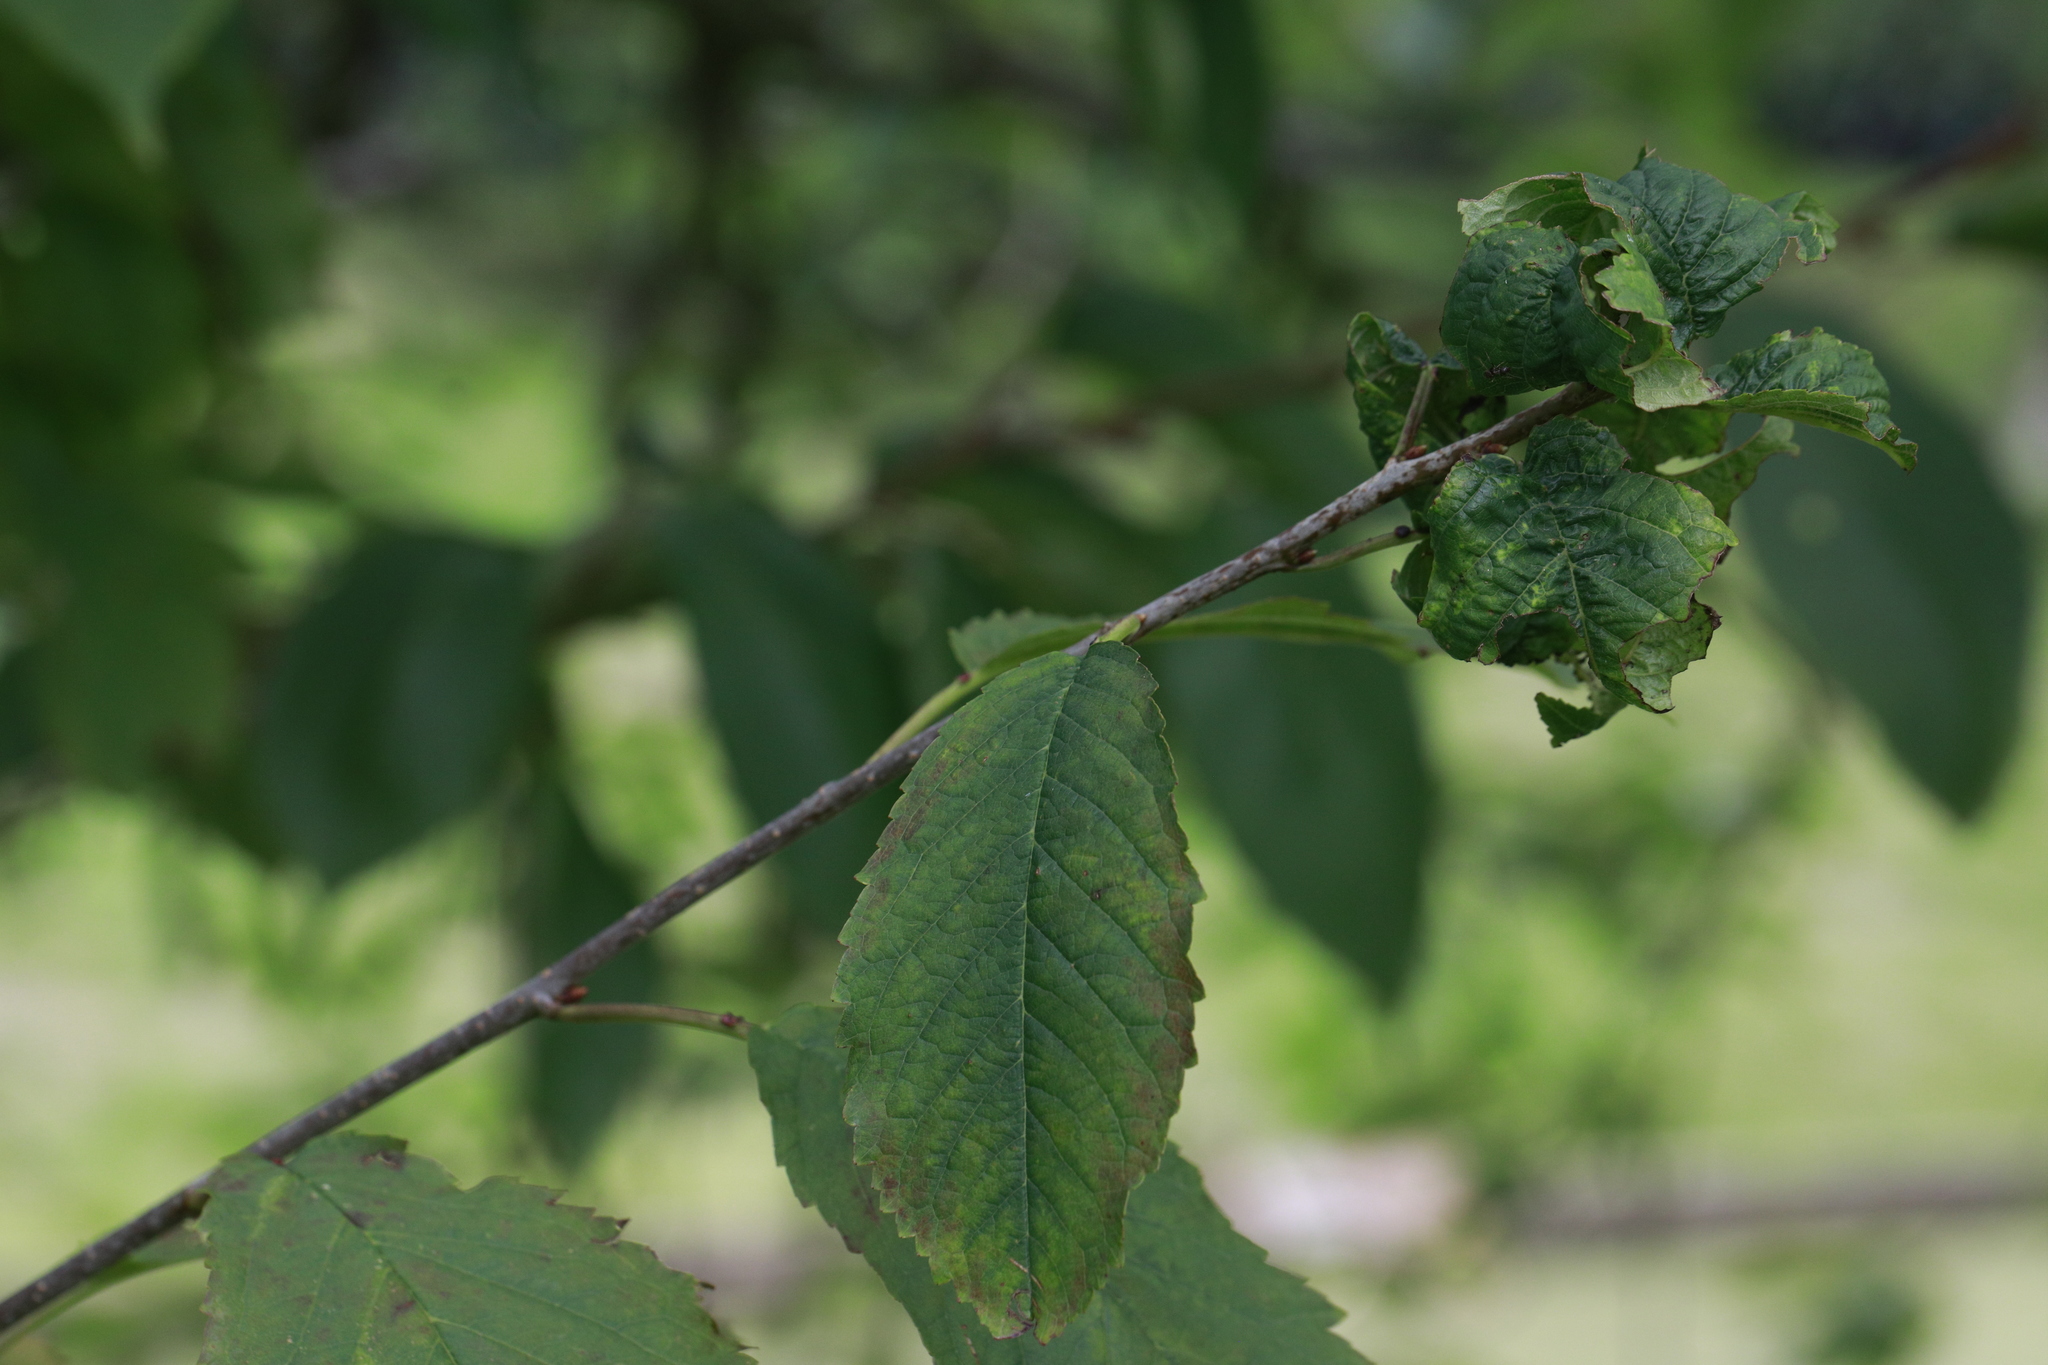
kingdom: Animalia
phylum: Arthropoda
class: Insecta
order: Hemiptera
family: Aphididae
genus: Myzus
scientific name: Myzus cerasi
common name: Black cherry aphid
